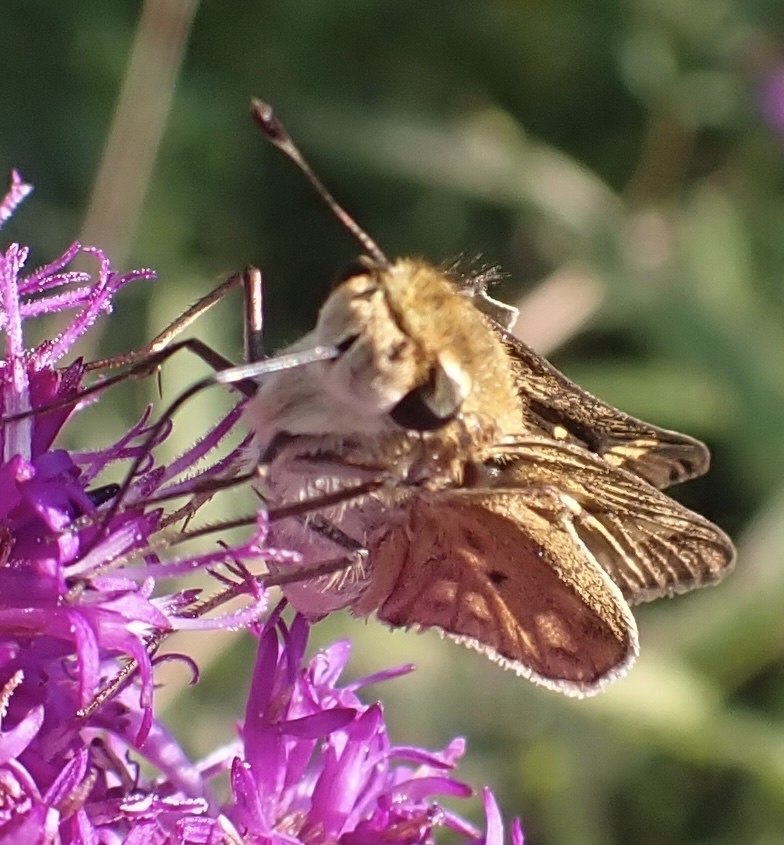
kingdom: Animalia
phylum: Arthropoda
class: Insecta
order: Lepidoptera
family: Hesperiidae
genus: Hylephila
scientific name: Hylephila phyleus
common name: Fiery skipper
